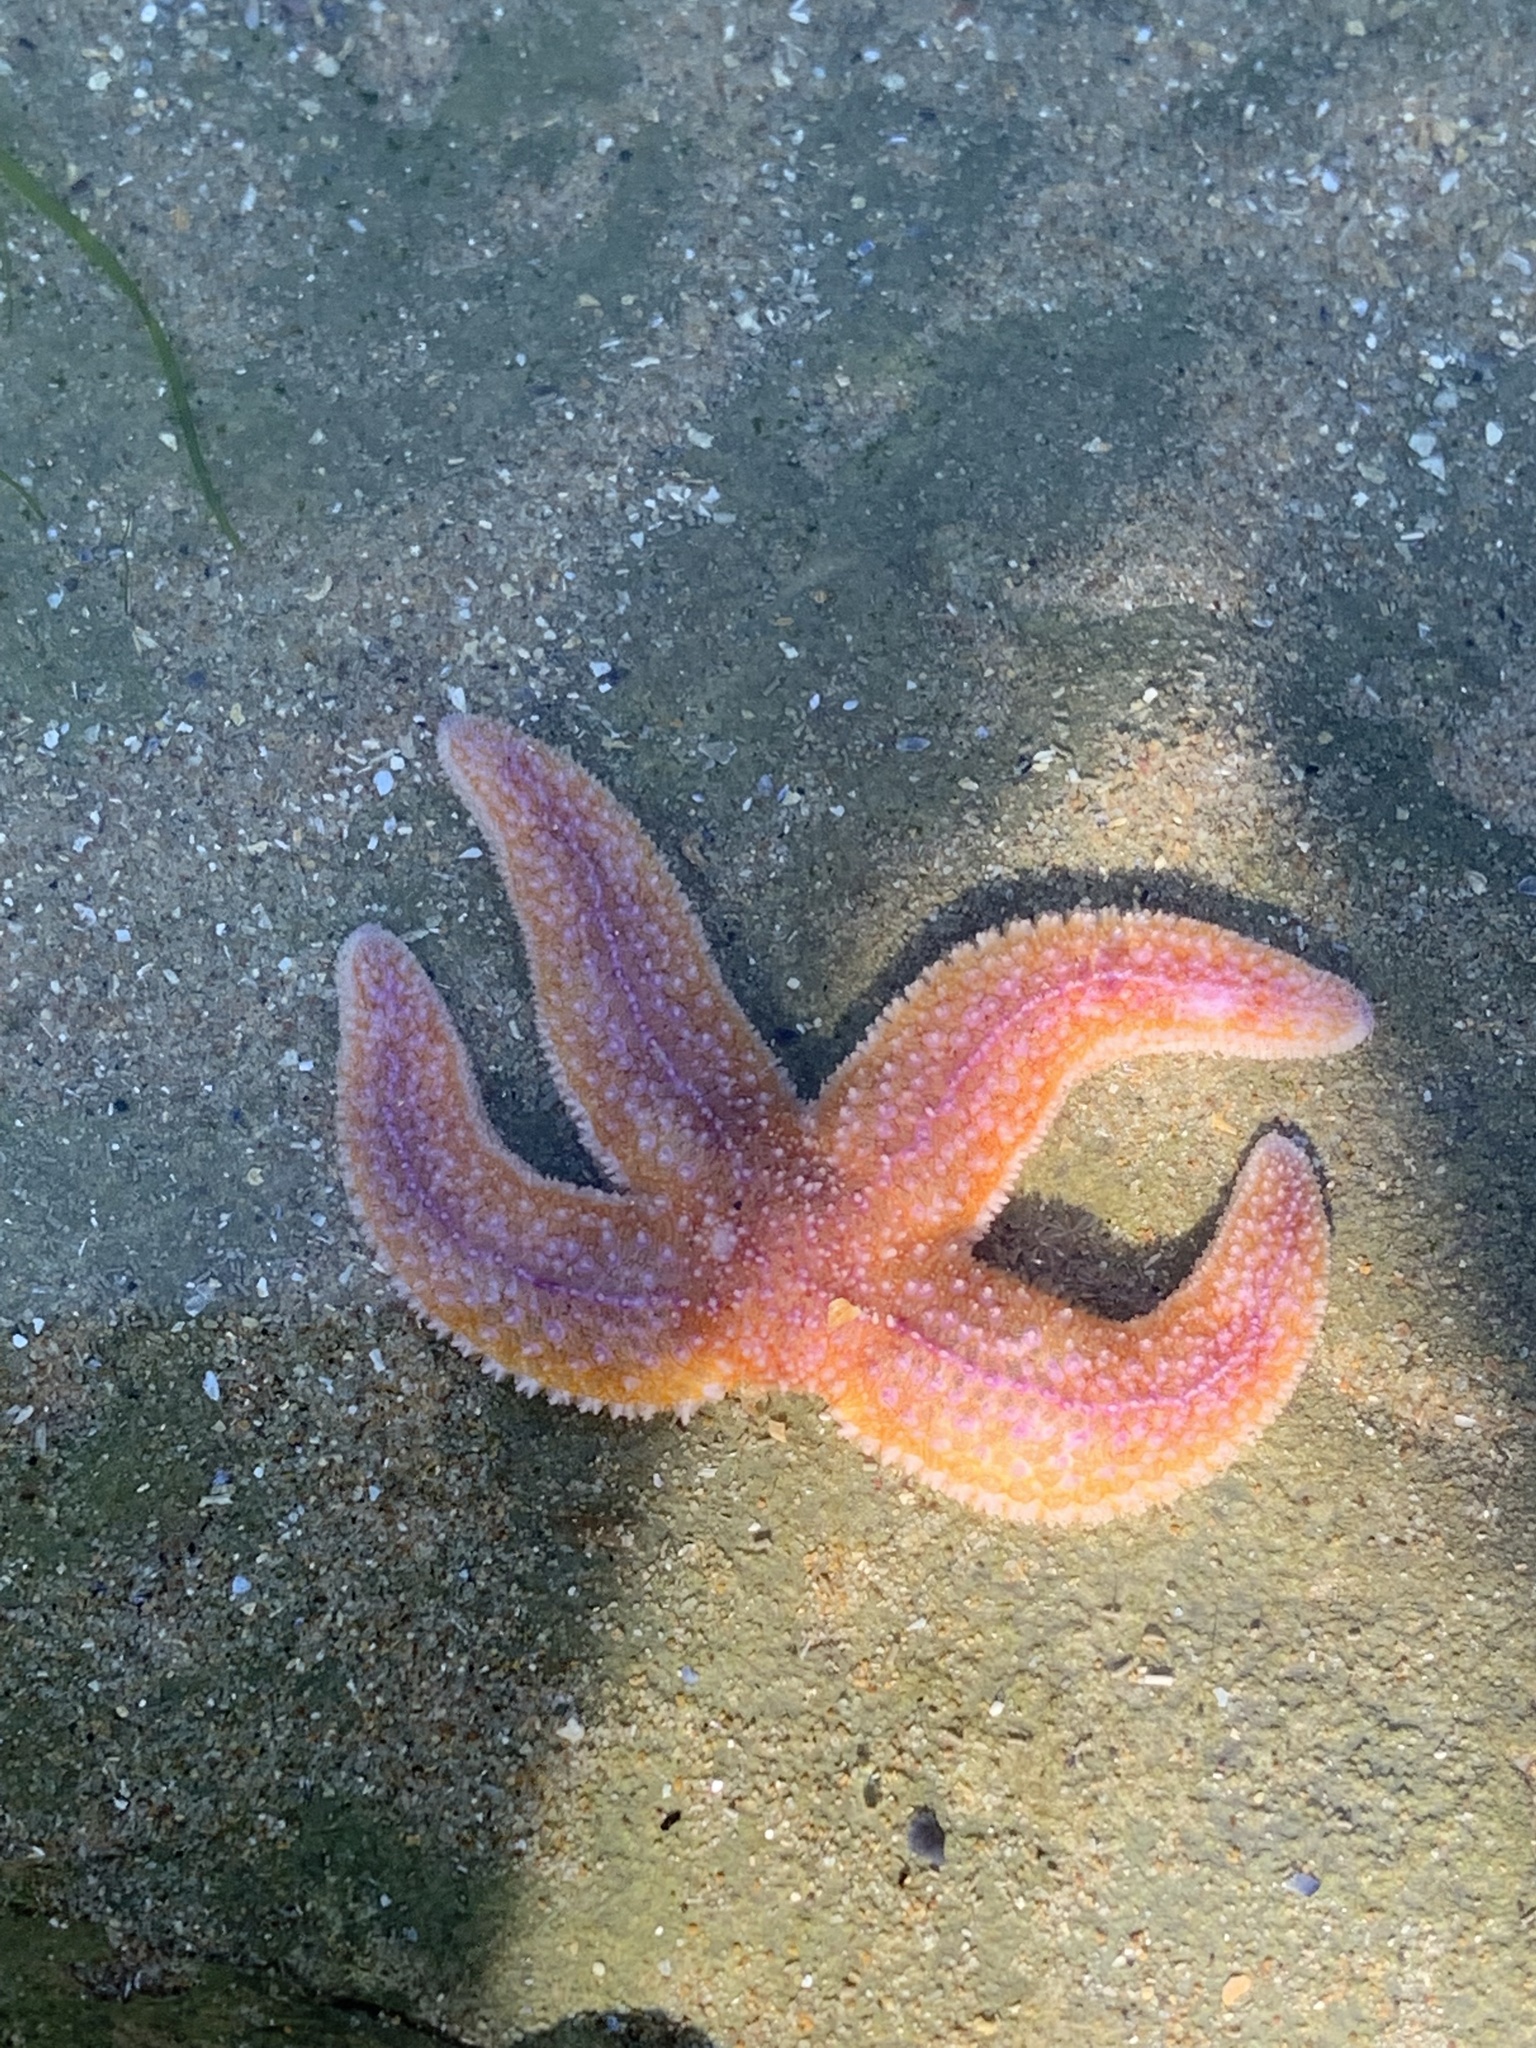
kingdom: Animalia
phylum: Echinodermata
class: Asteroidea
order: Forcipulatida
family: Asteriidae
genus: Asterias
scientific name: Asterias rubens
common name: Common starfish
